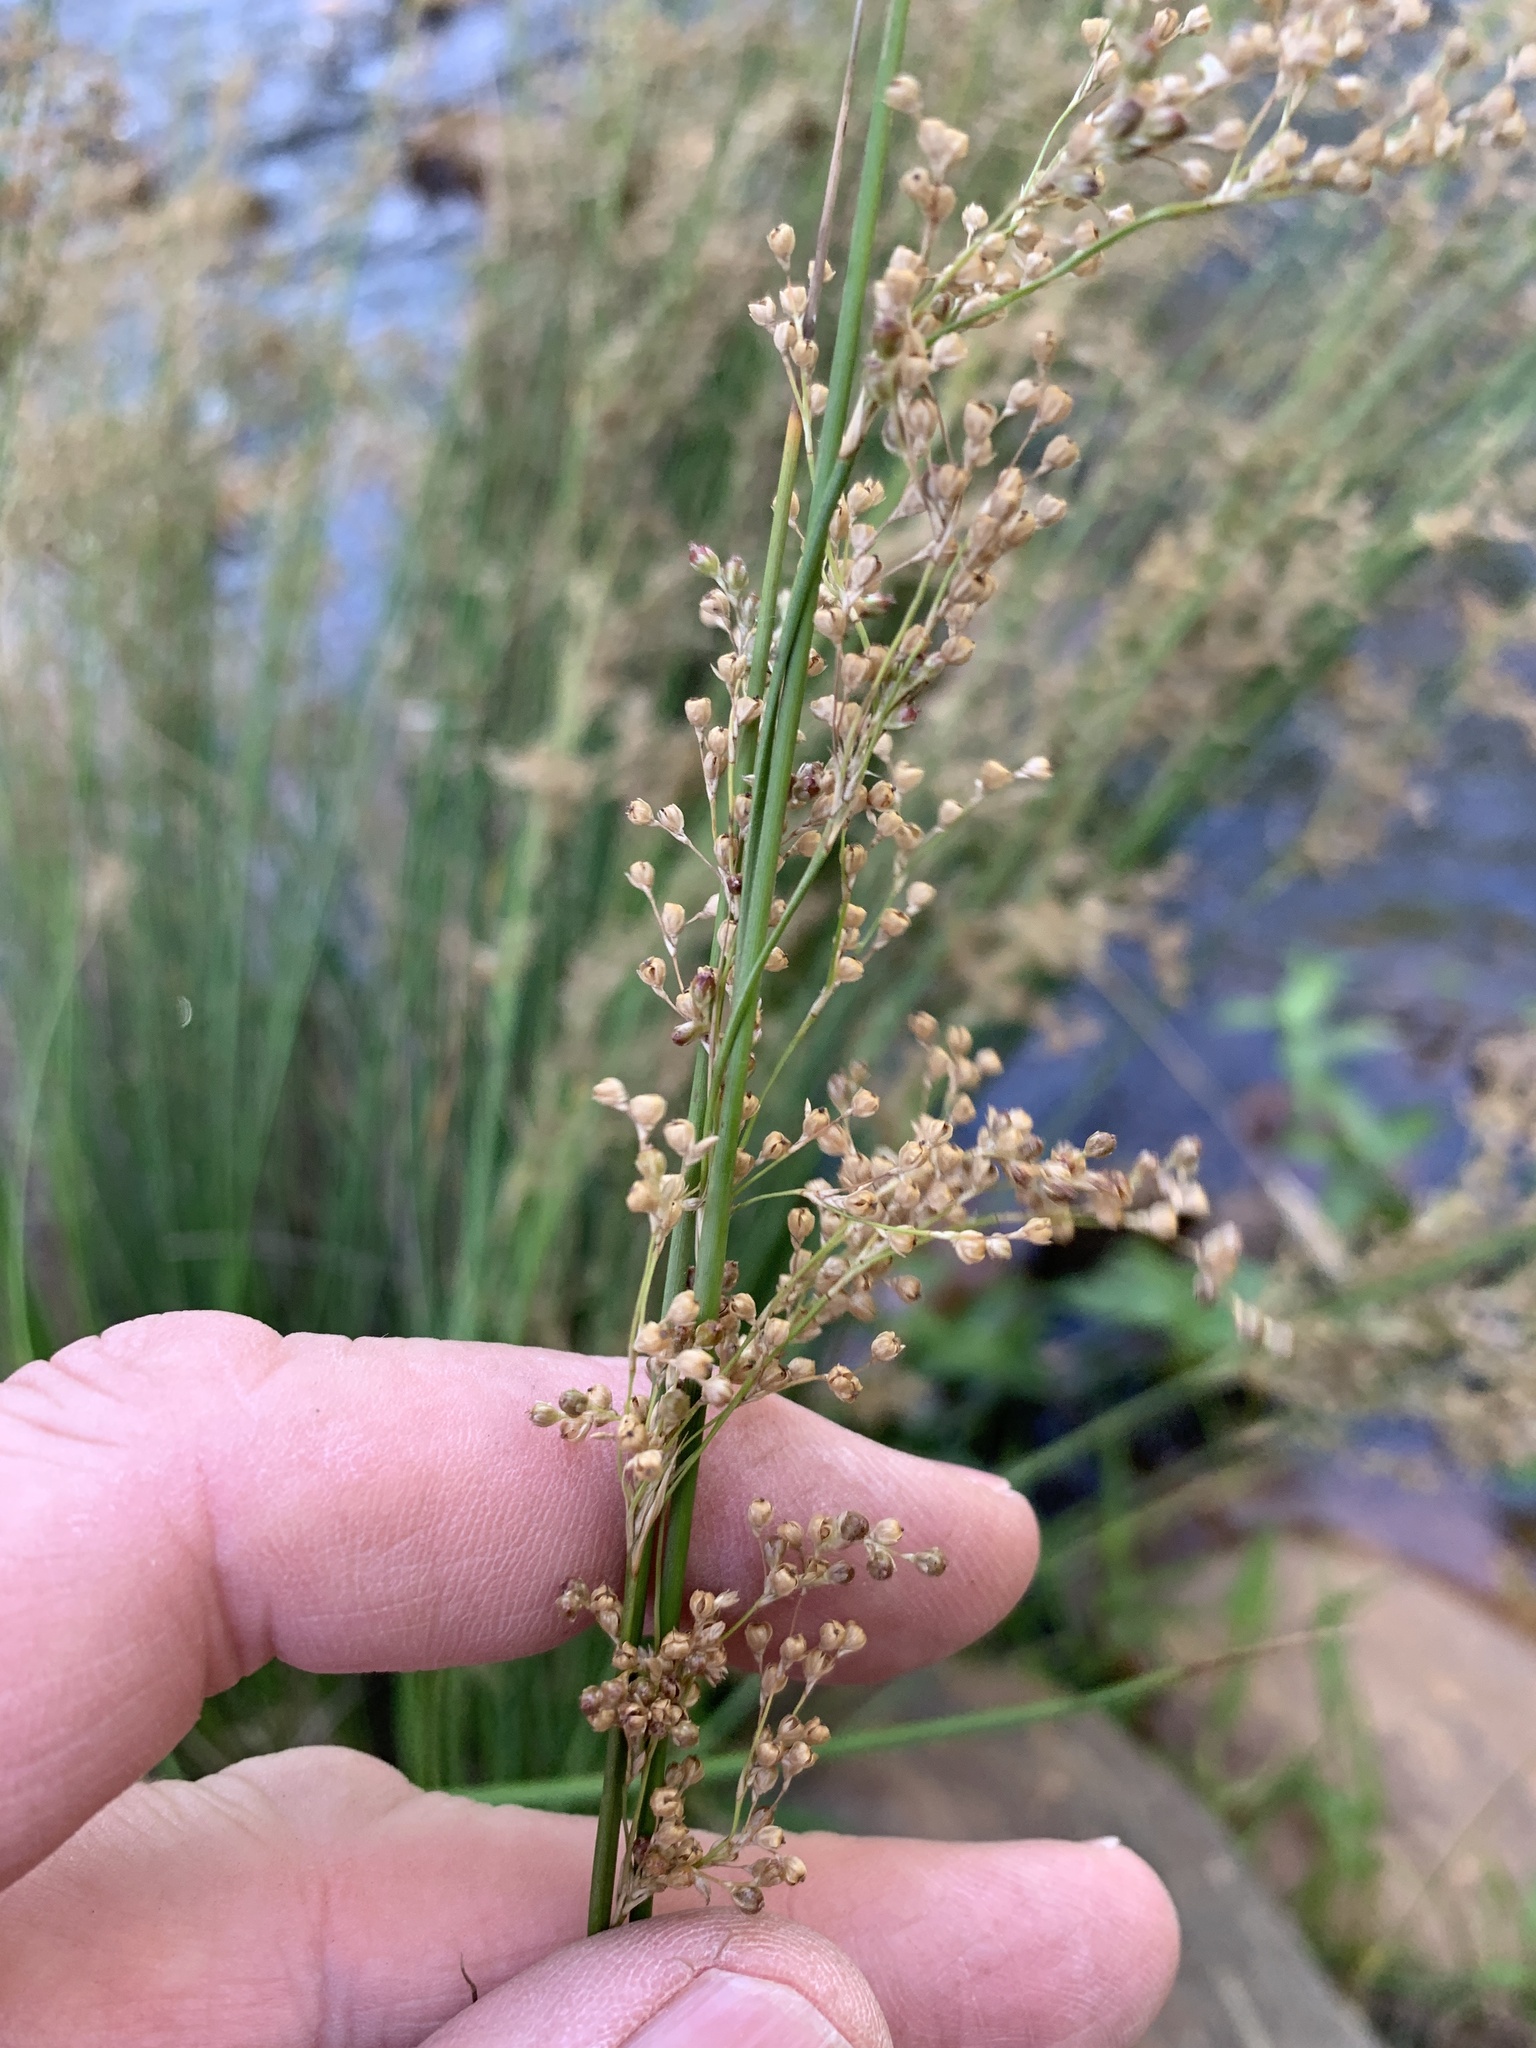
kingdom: Plantae
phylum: Tracheophyta
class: Liliopsida
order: Poales
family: Juncaceae
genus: Juncus
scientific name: Juncus effusus
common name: Soft rush
